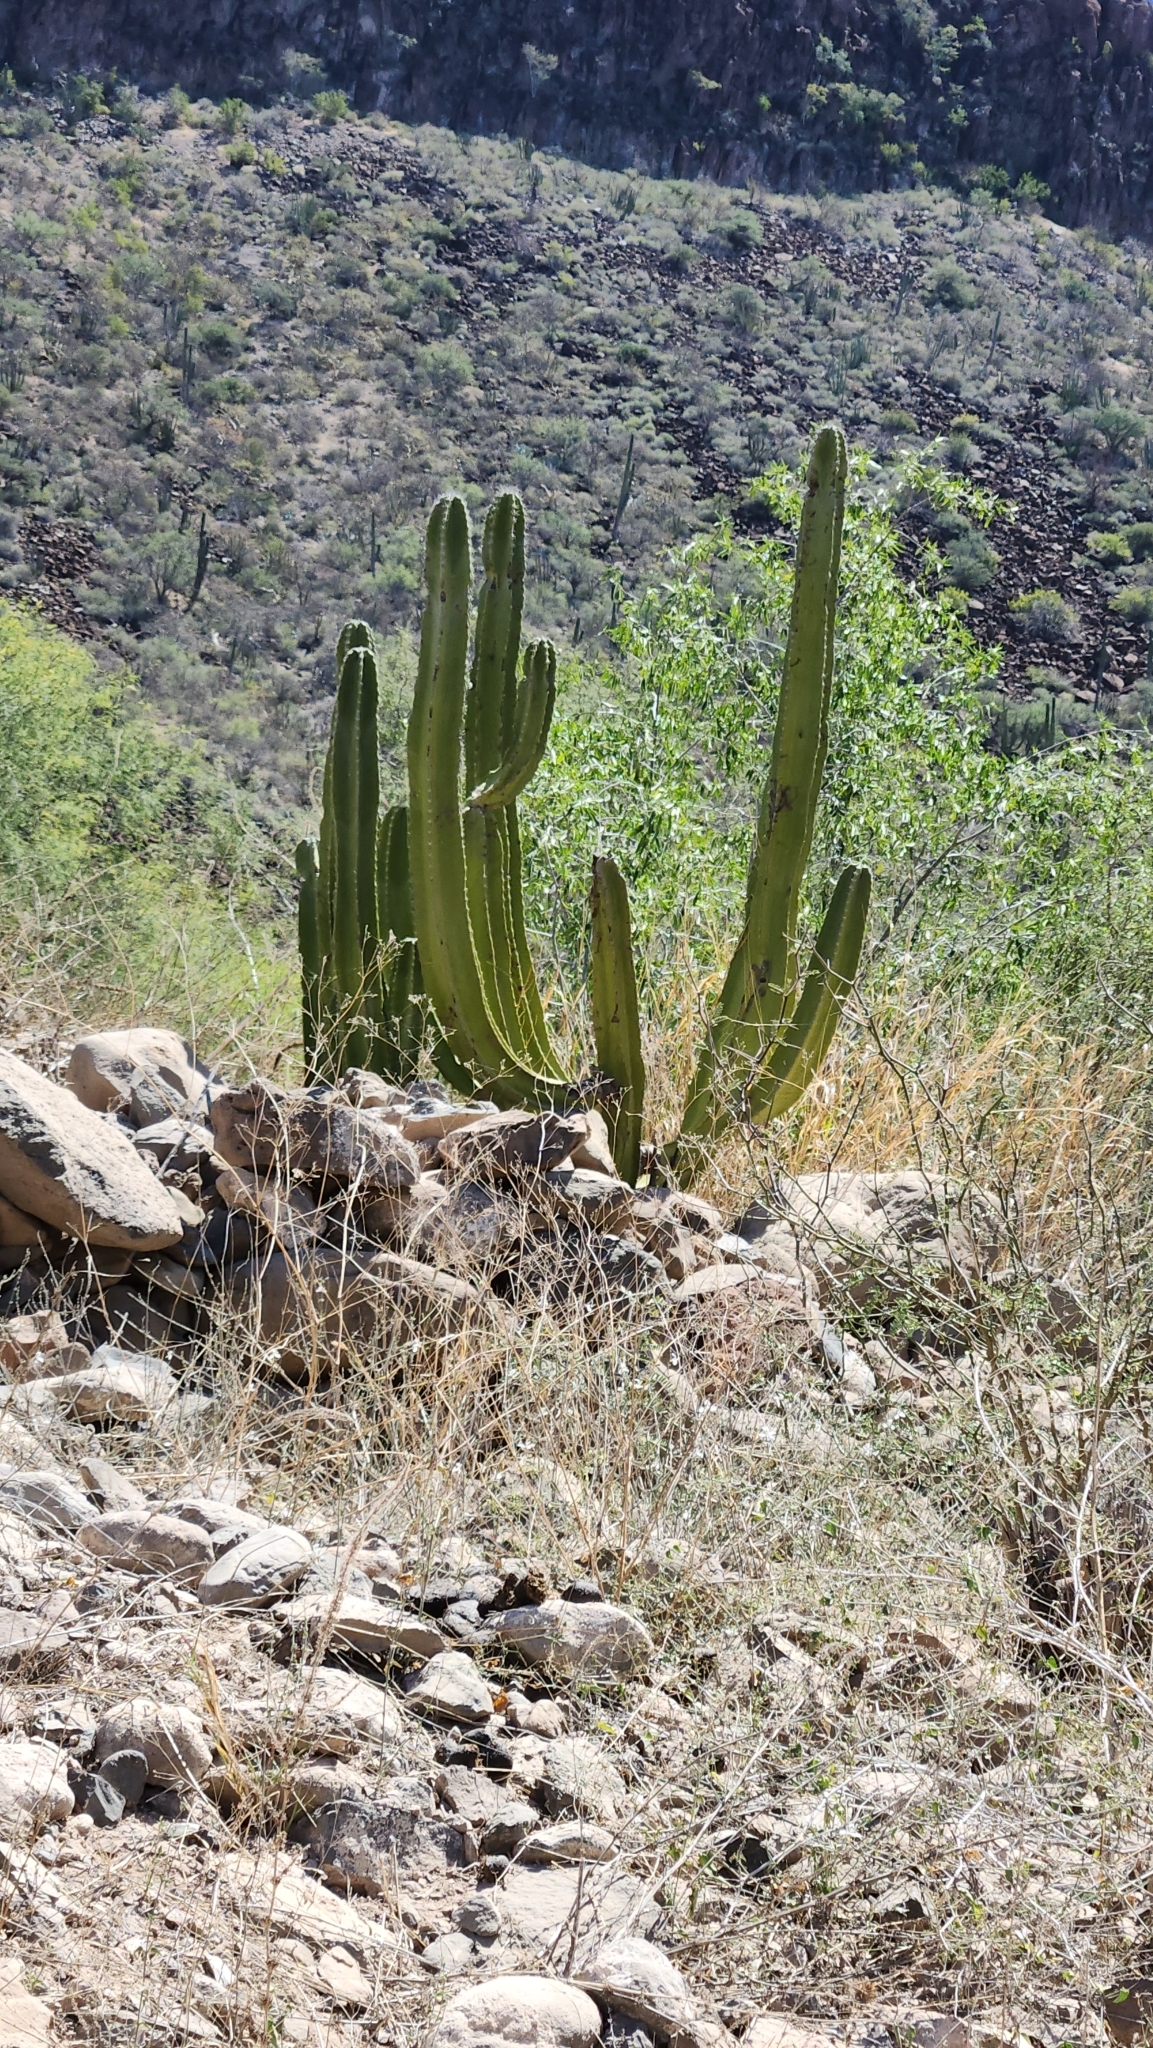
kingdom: Plantae
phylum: Tracheophyta
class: Magnoliopsida
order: Caryophyllales
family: Cactaceae
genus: Pachycereus
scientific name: Pachycereus schottii
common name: Senita cactus
